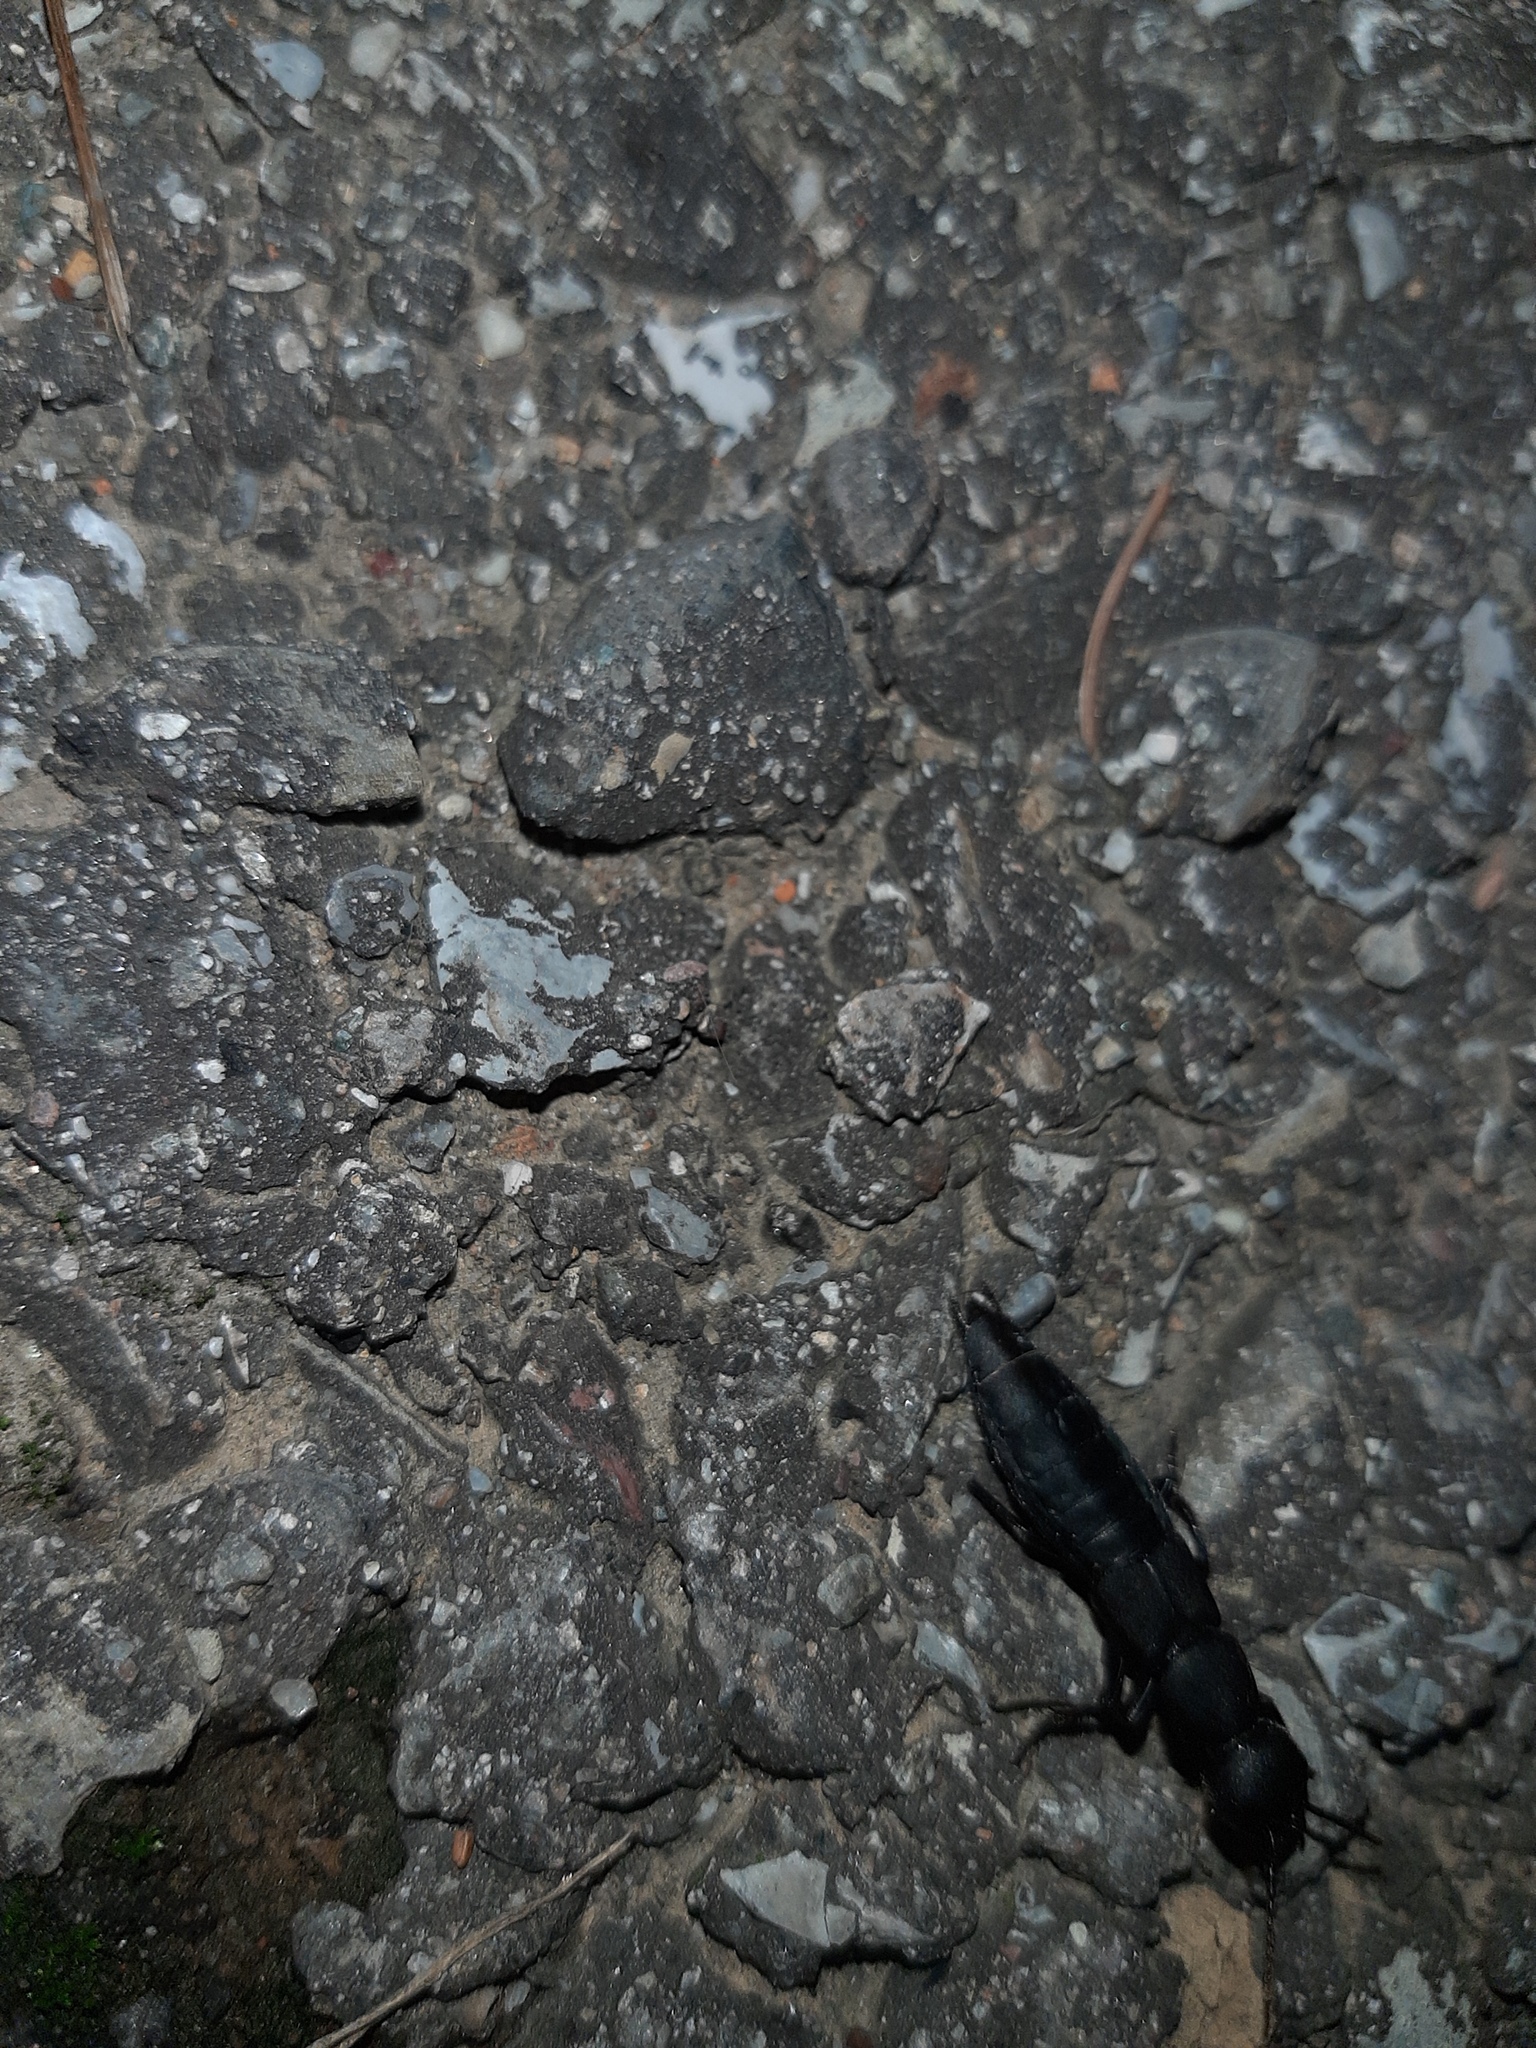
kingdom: Animalia
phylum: Arthropoda
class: Insecta
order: Coleoptera
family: Staphylinidae
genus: Ocypus
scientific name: Ocypus olens
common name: Devil's coach-horse
